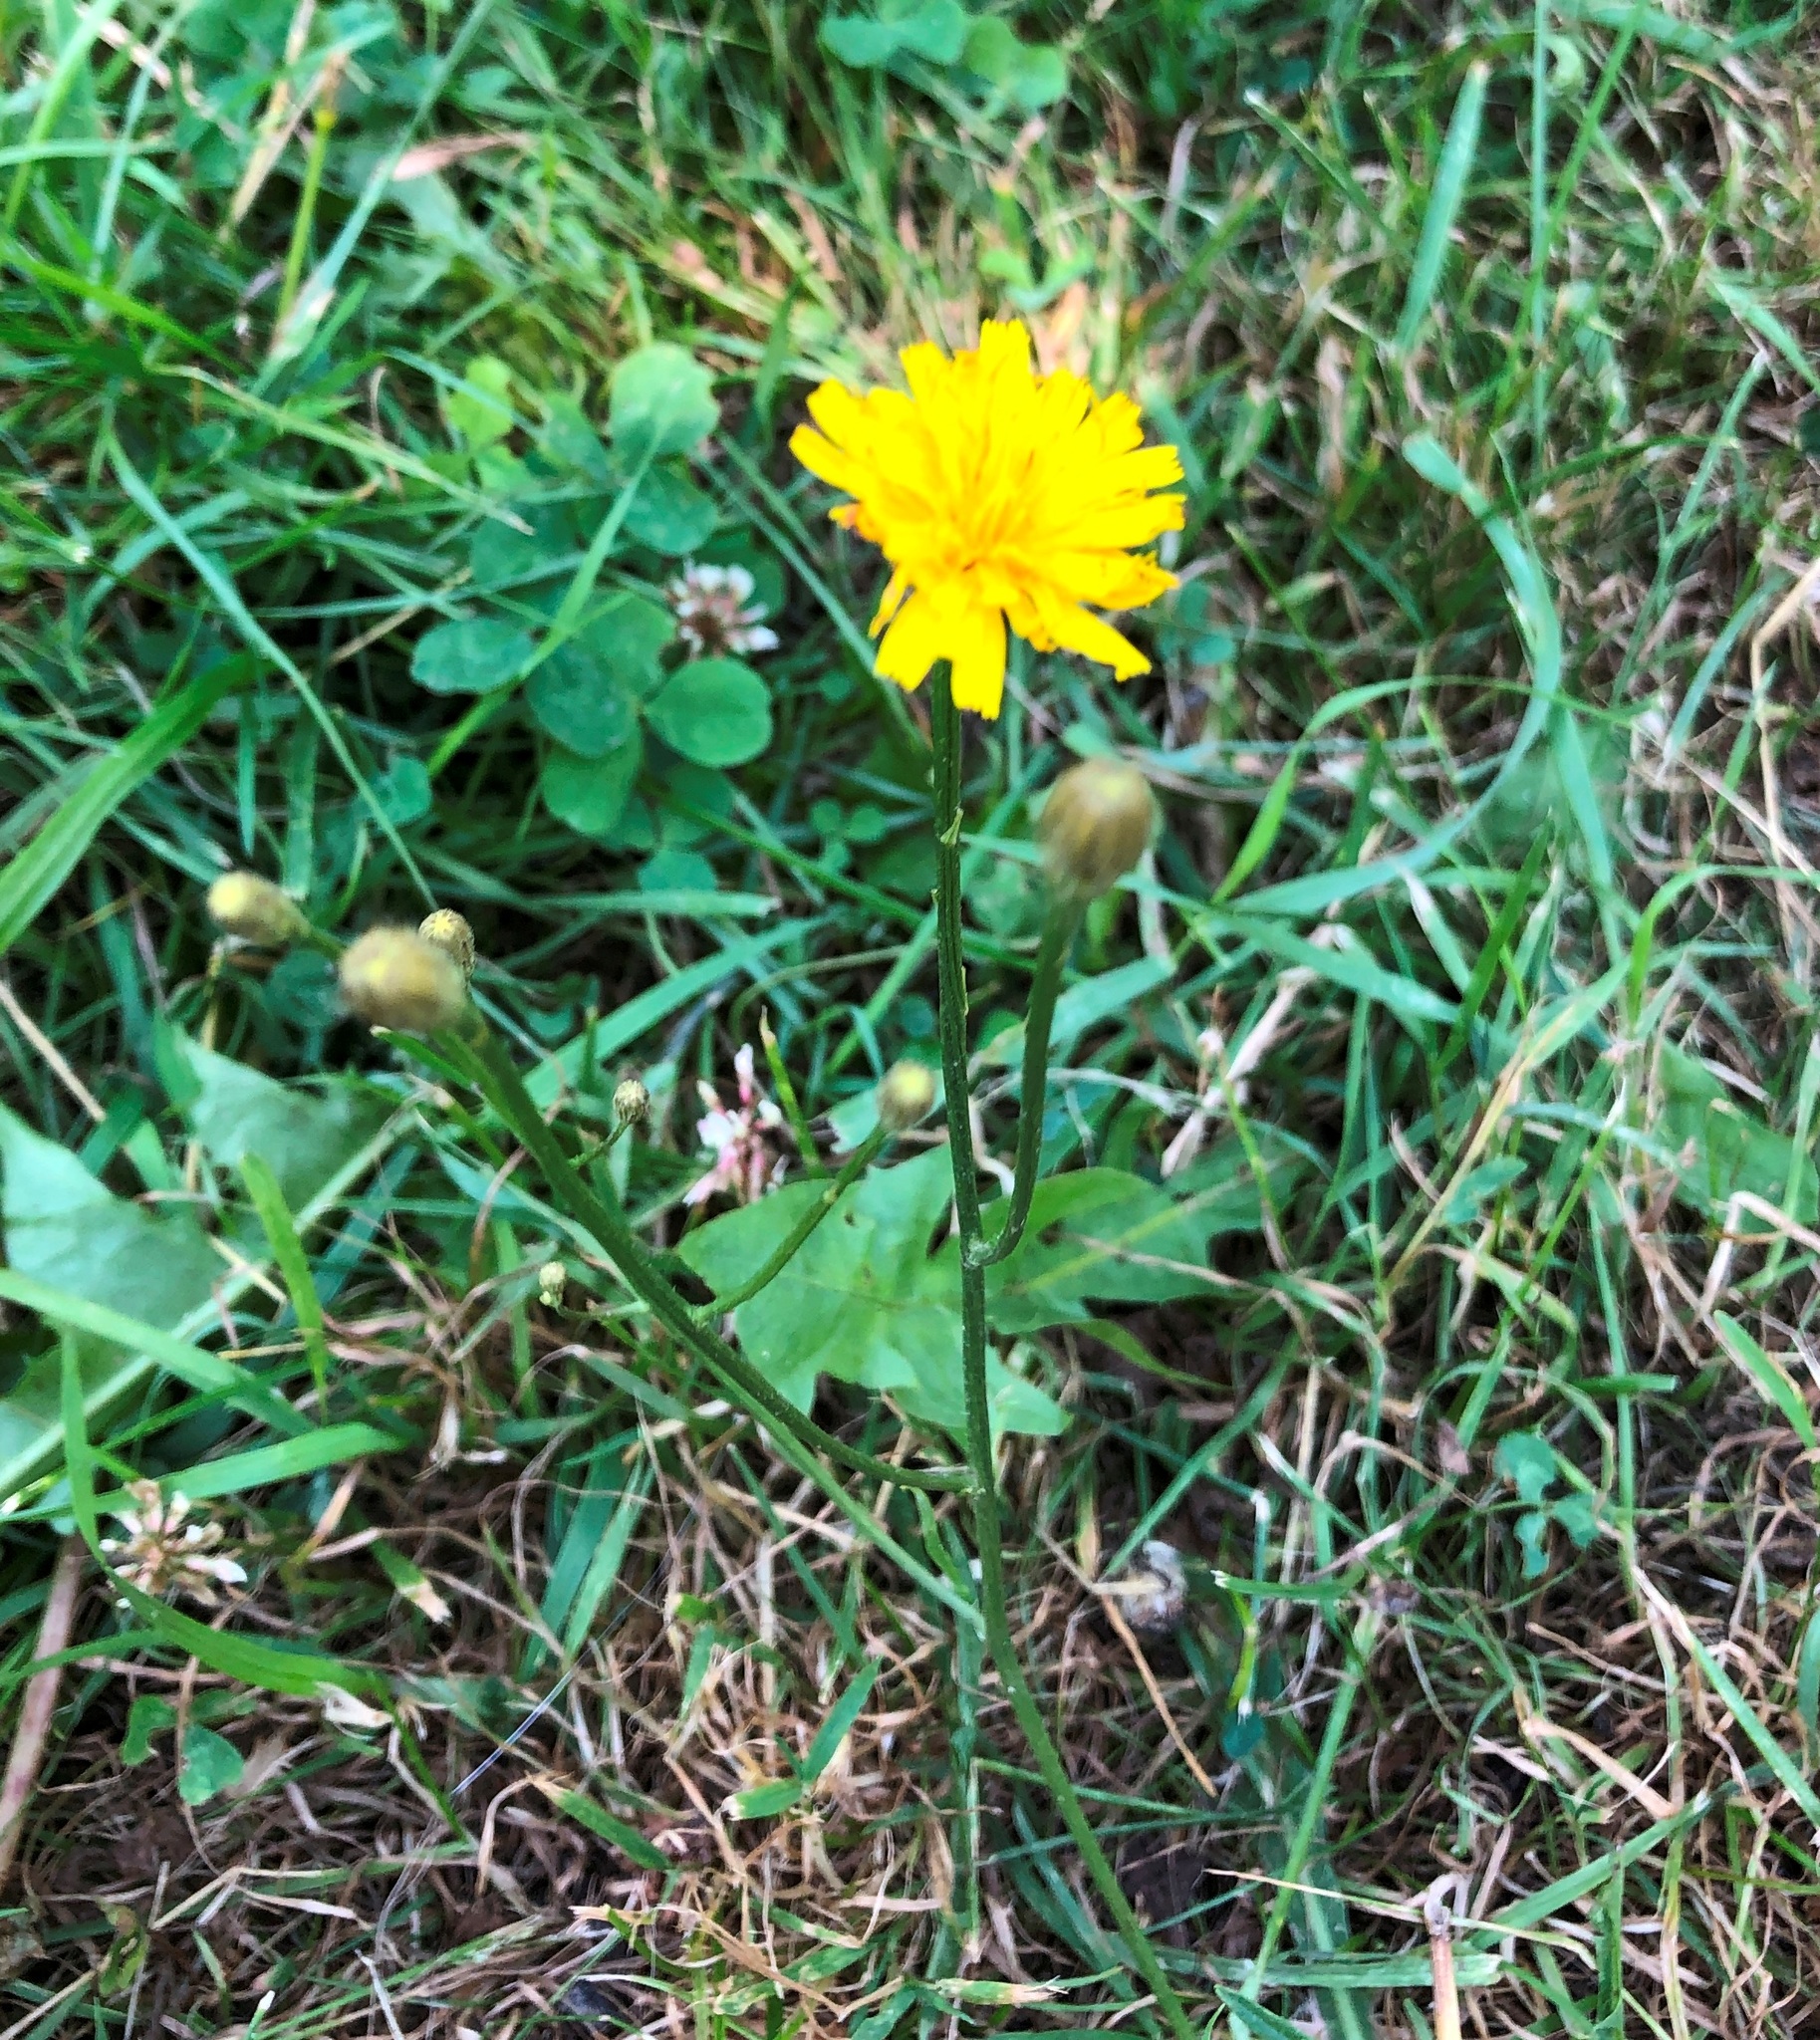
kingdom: Plantae
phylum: Tracheophyta
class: Magnoliopsida
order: Asterales
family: Asteraceae
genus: Scorzoneroides
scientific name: Scorzoneroides autumnalis
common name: Autumn hawkbit
